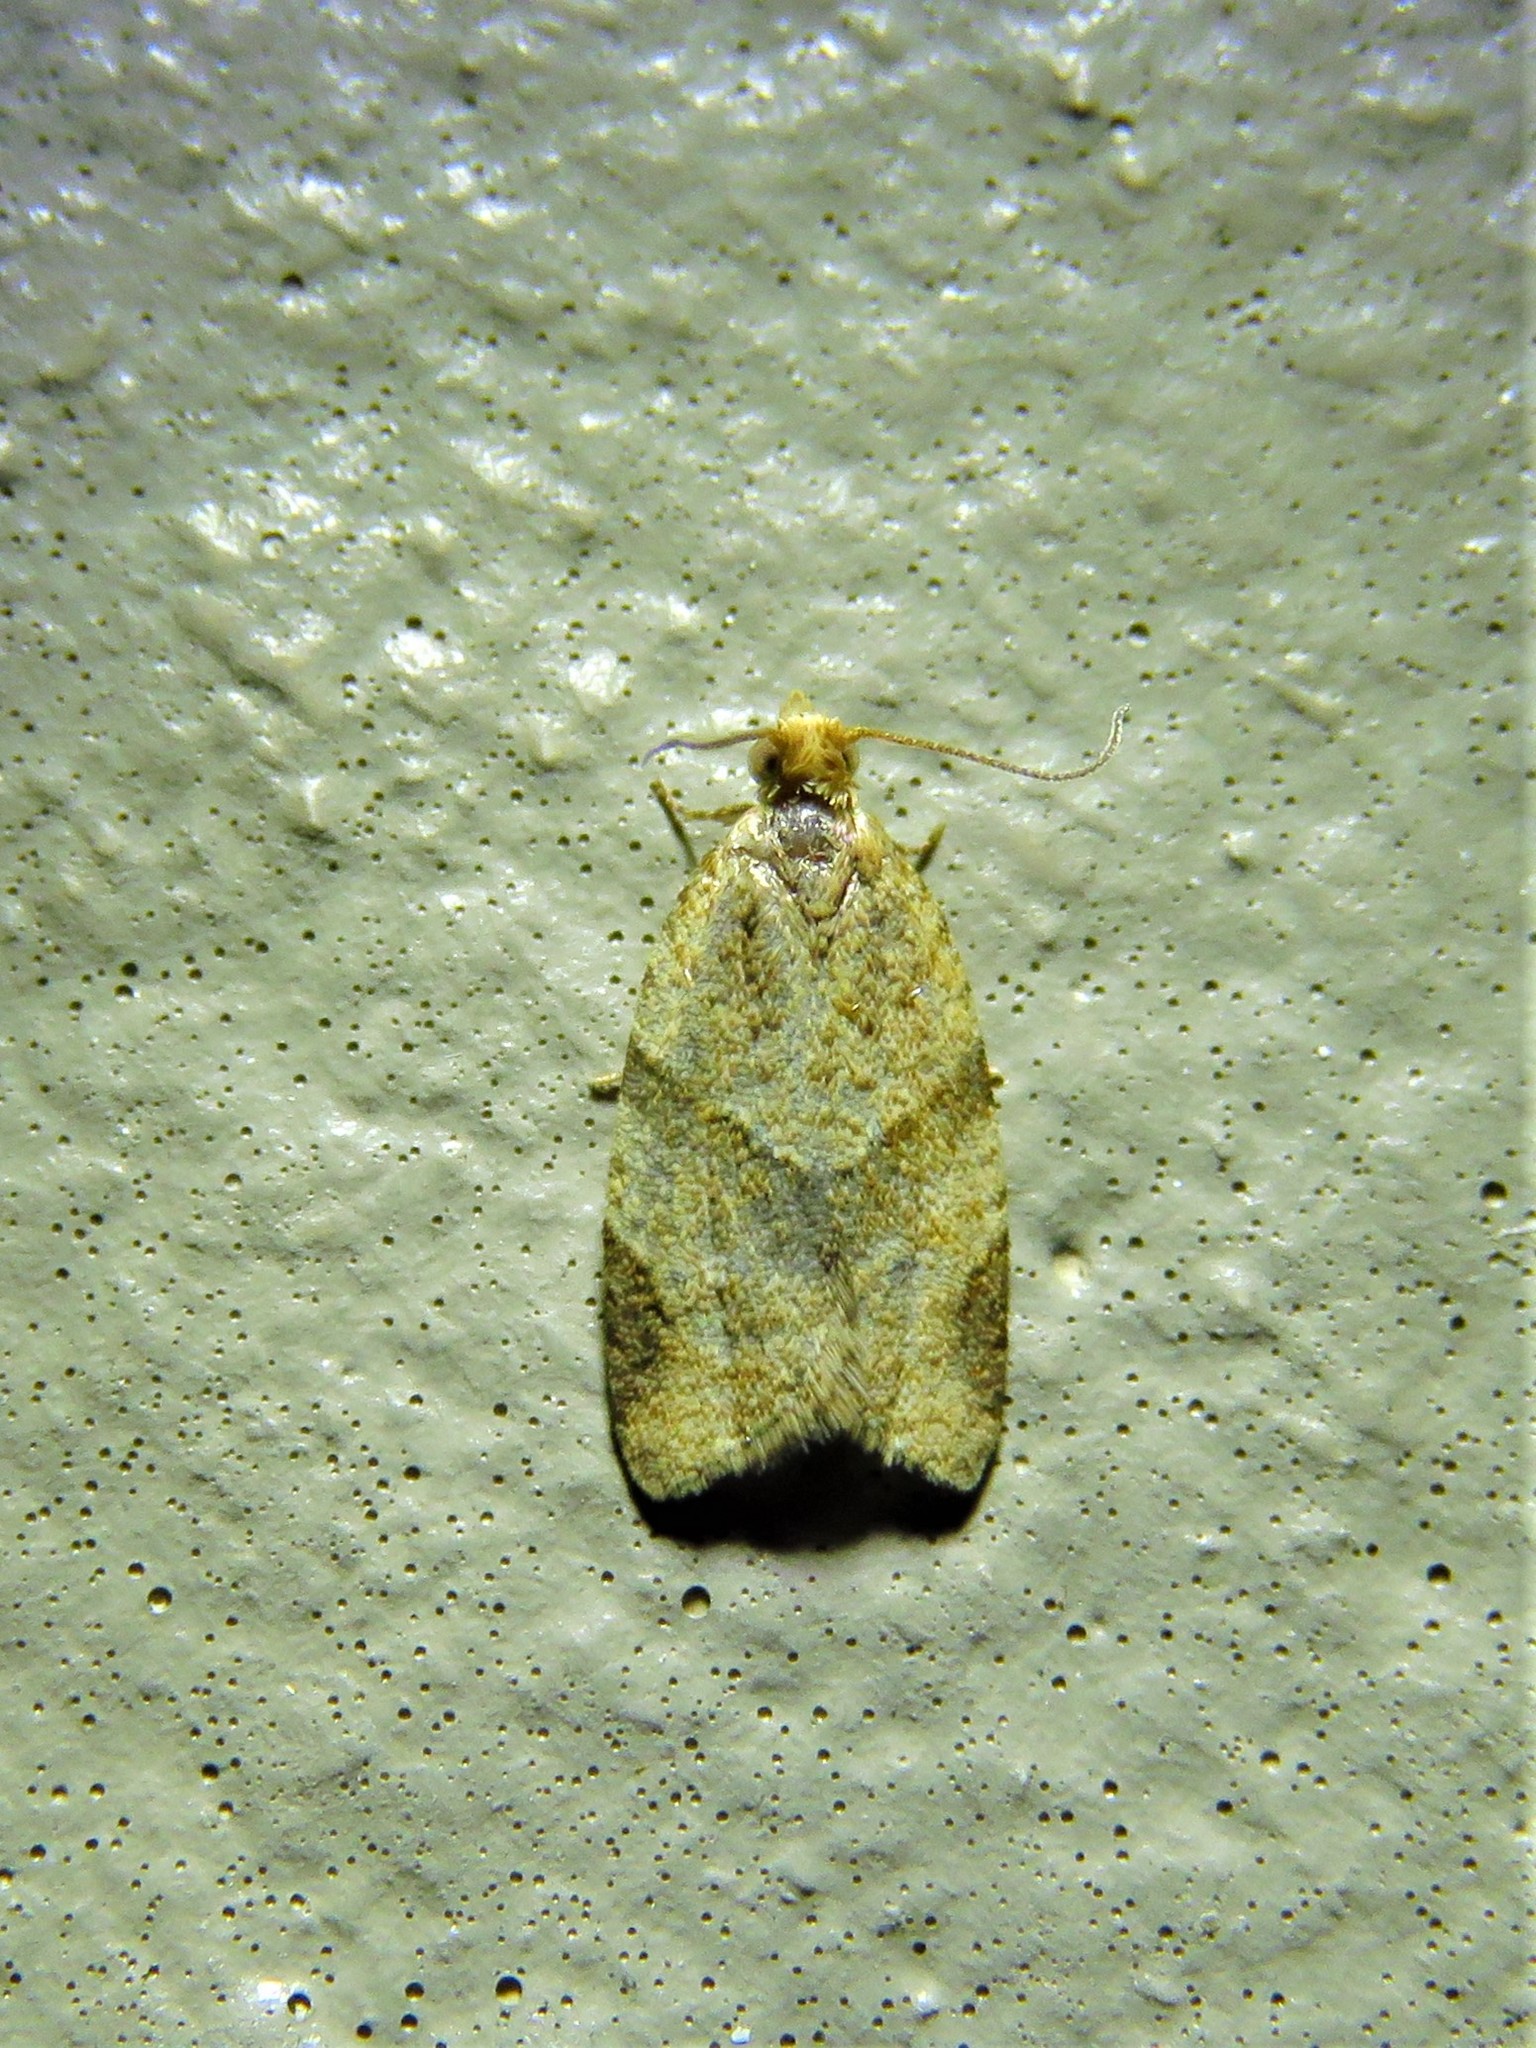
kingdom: Animalia
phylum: Arthropoda
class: Insecta
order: Lepidoptera
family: Tortricidae
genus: Clepsis
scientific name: Clepsis peritana
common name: Garden tortrix
